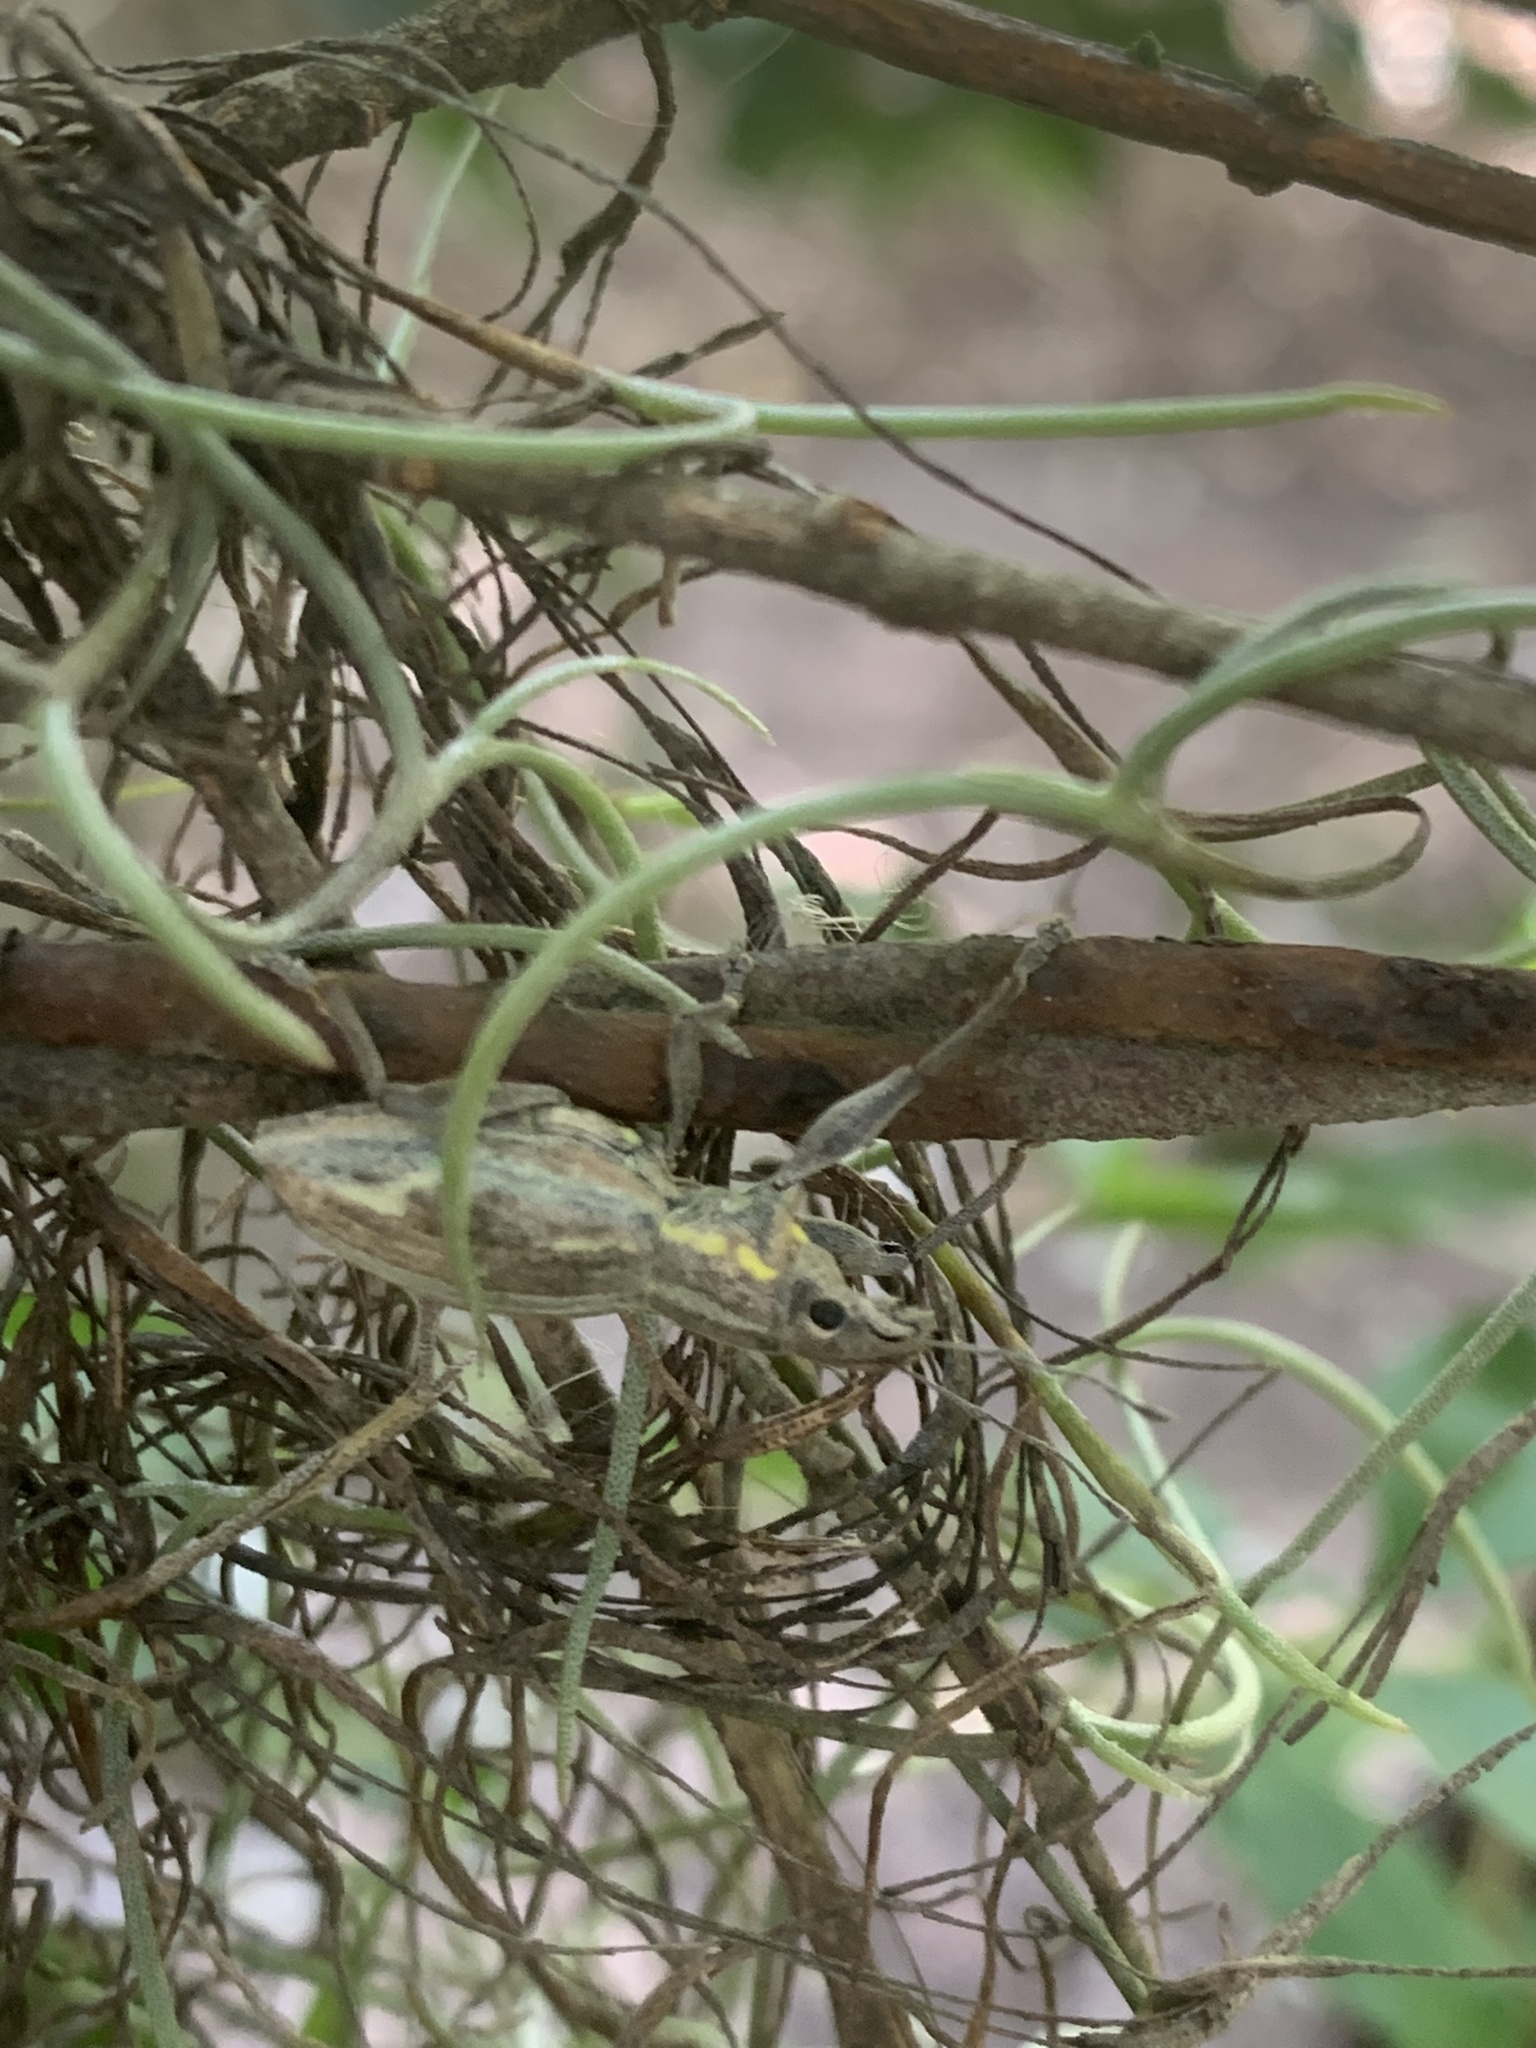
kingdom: Animalia
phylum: Arthropoda
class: Insecta
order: Coleoptera
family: Curculionidae
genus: Naupactus
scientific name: Naupactus xanthographus
